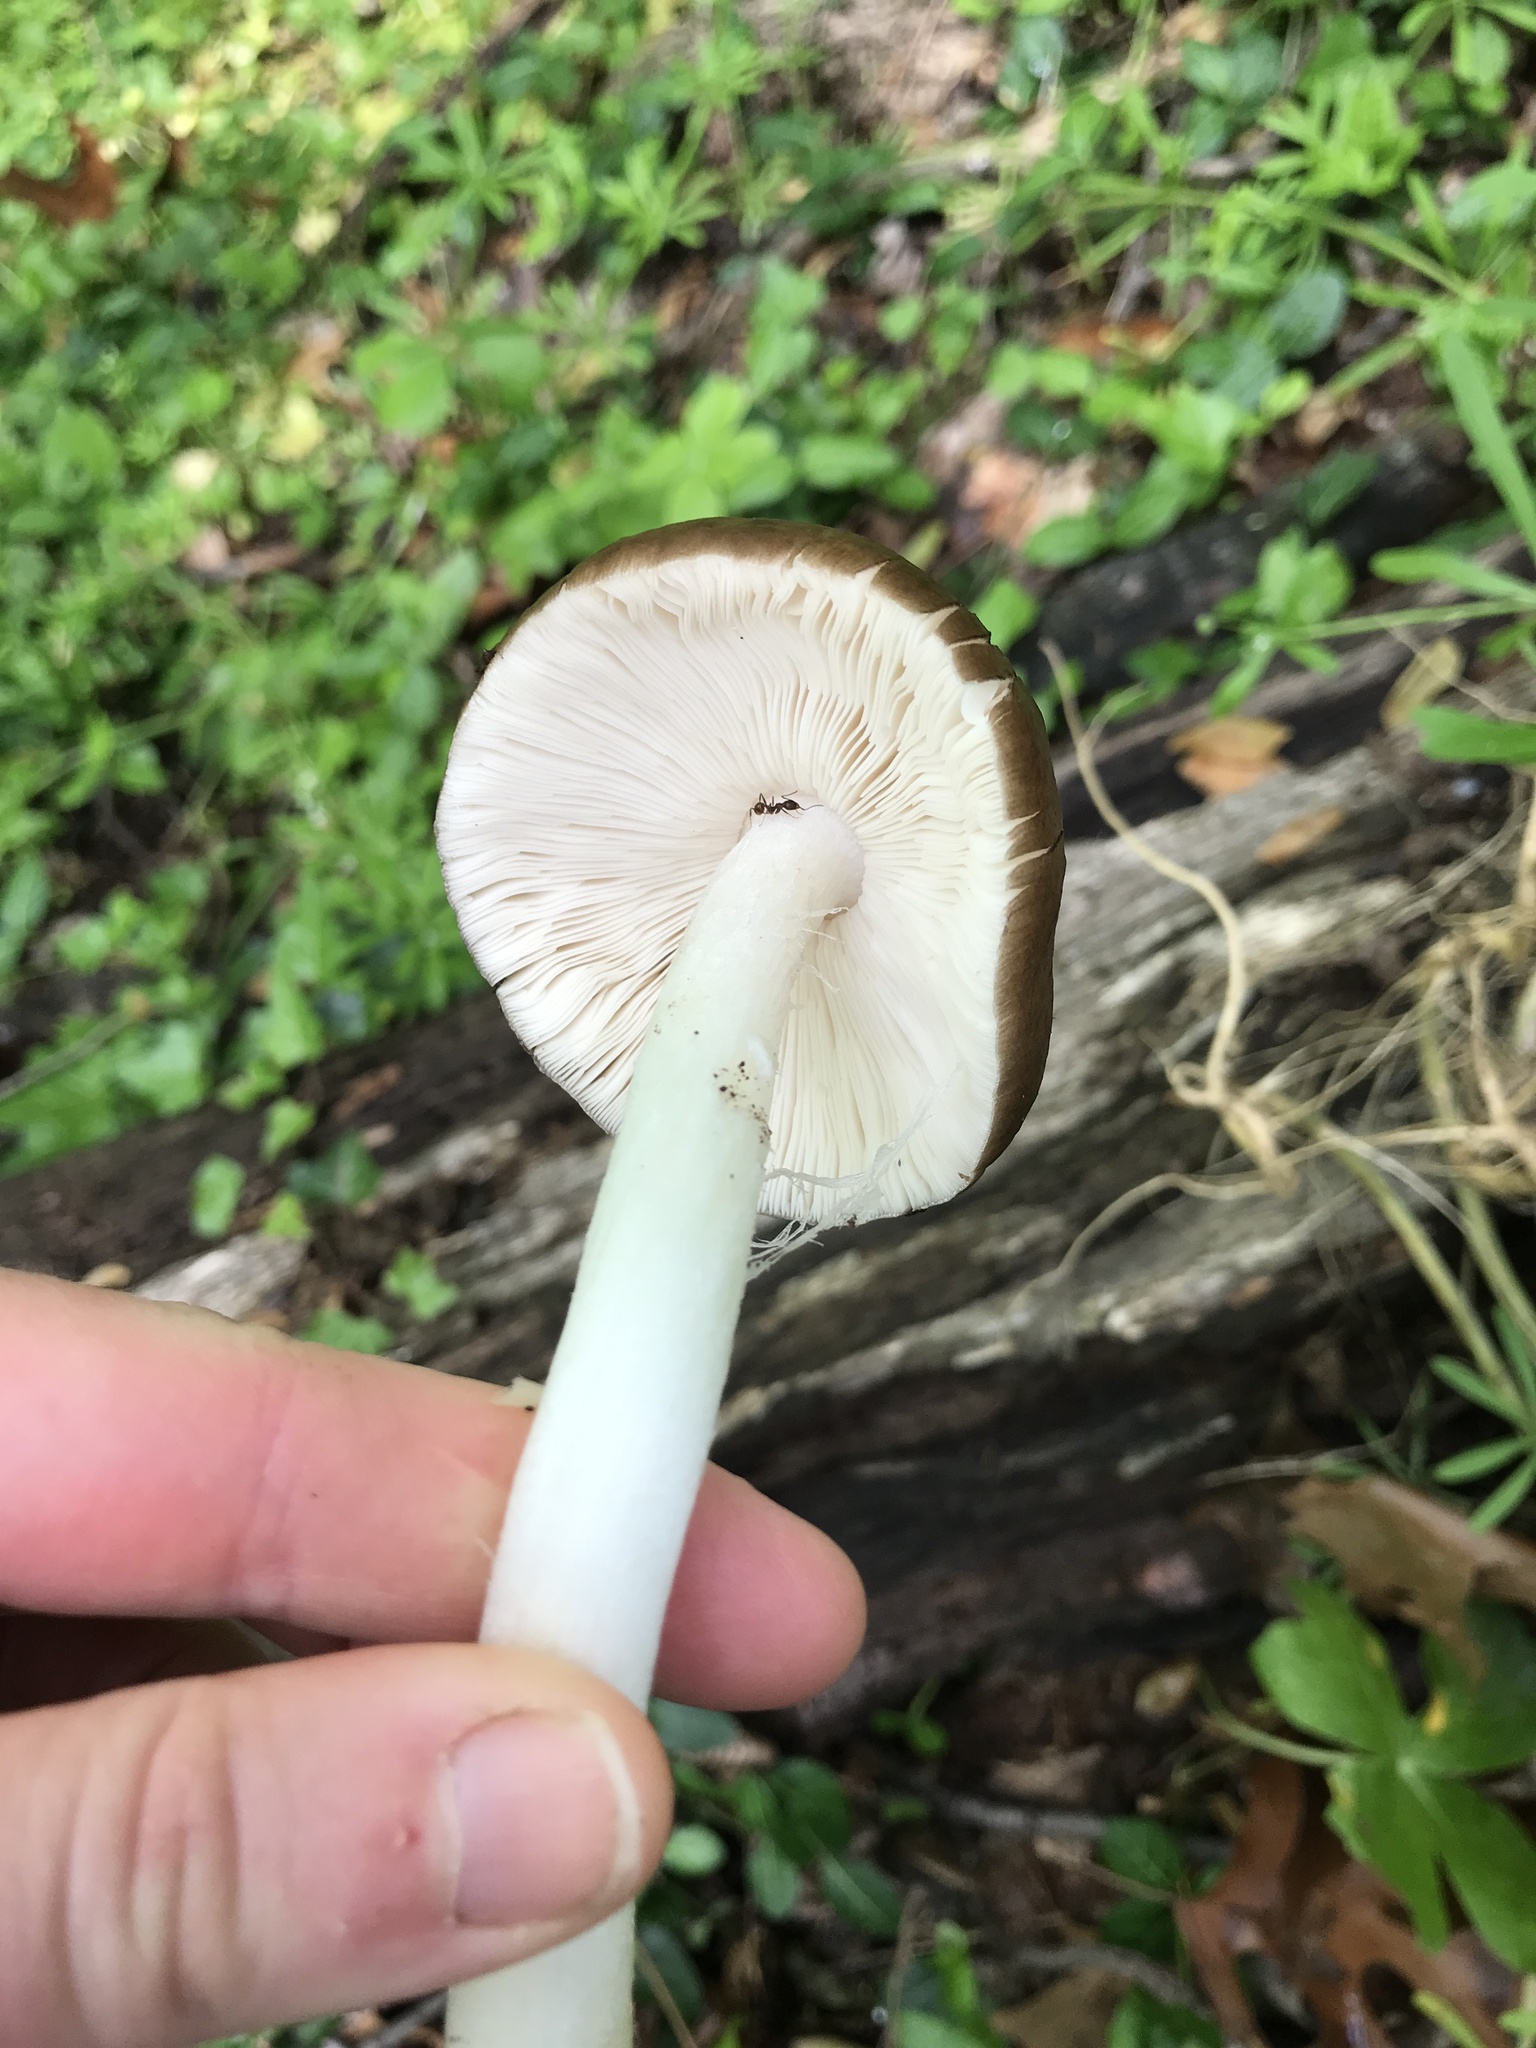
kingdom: Fungi
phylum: Basidiomycota
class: Agaricomycetes
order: Agaricales
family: Pluteaceae
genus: Pluteus
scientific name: Pluteus cervinus
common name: Deer shield
